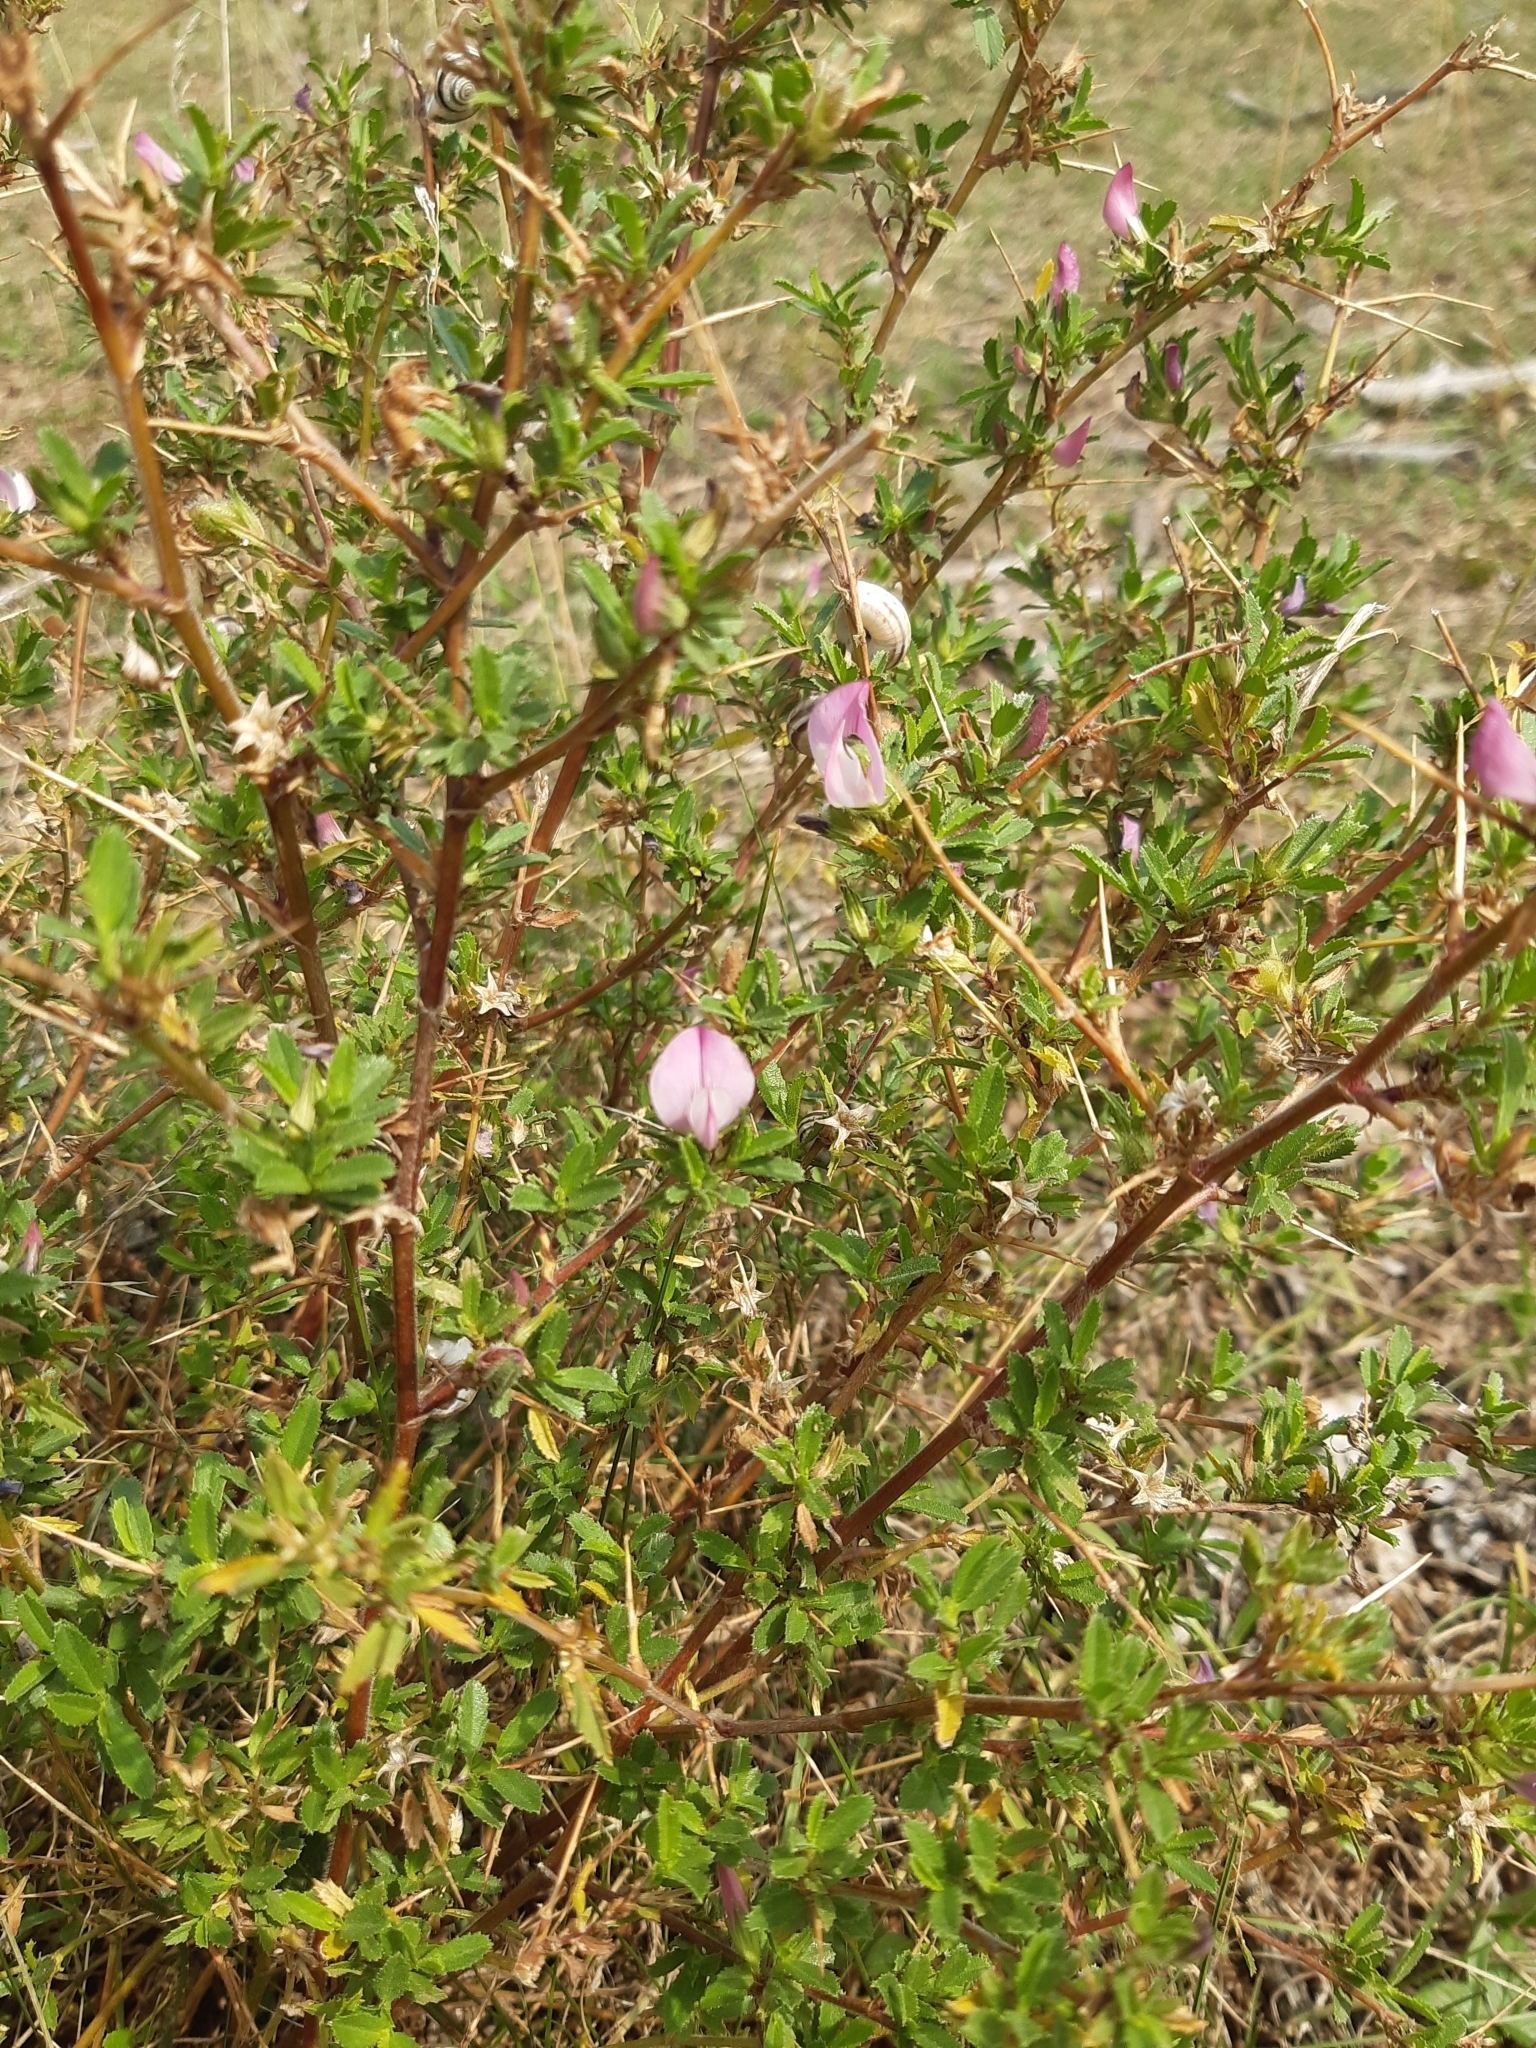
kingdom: Plantae
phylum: Tracheophyta
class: Magnoliopsida
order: Fabales
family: Fabaceae
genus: Ononis
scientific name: Ononis spinosa
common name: Spiny restharrow
